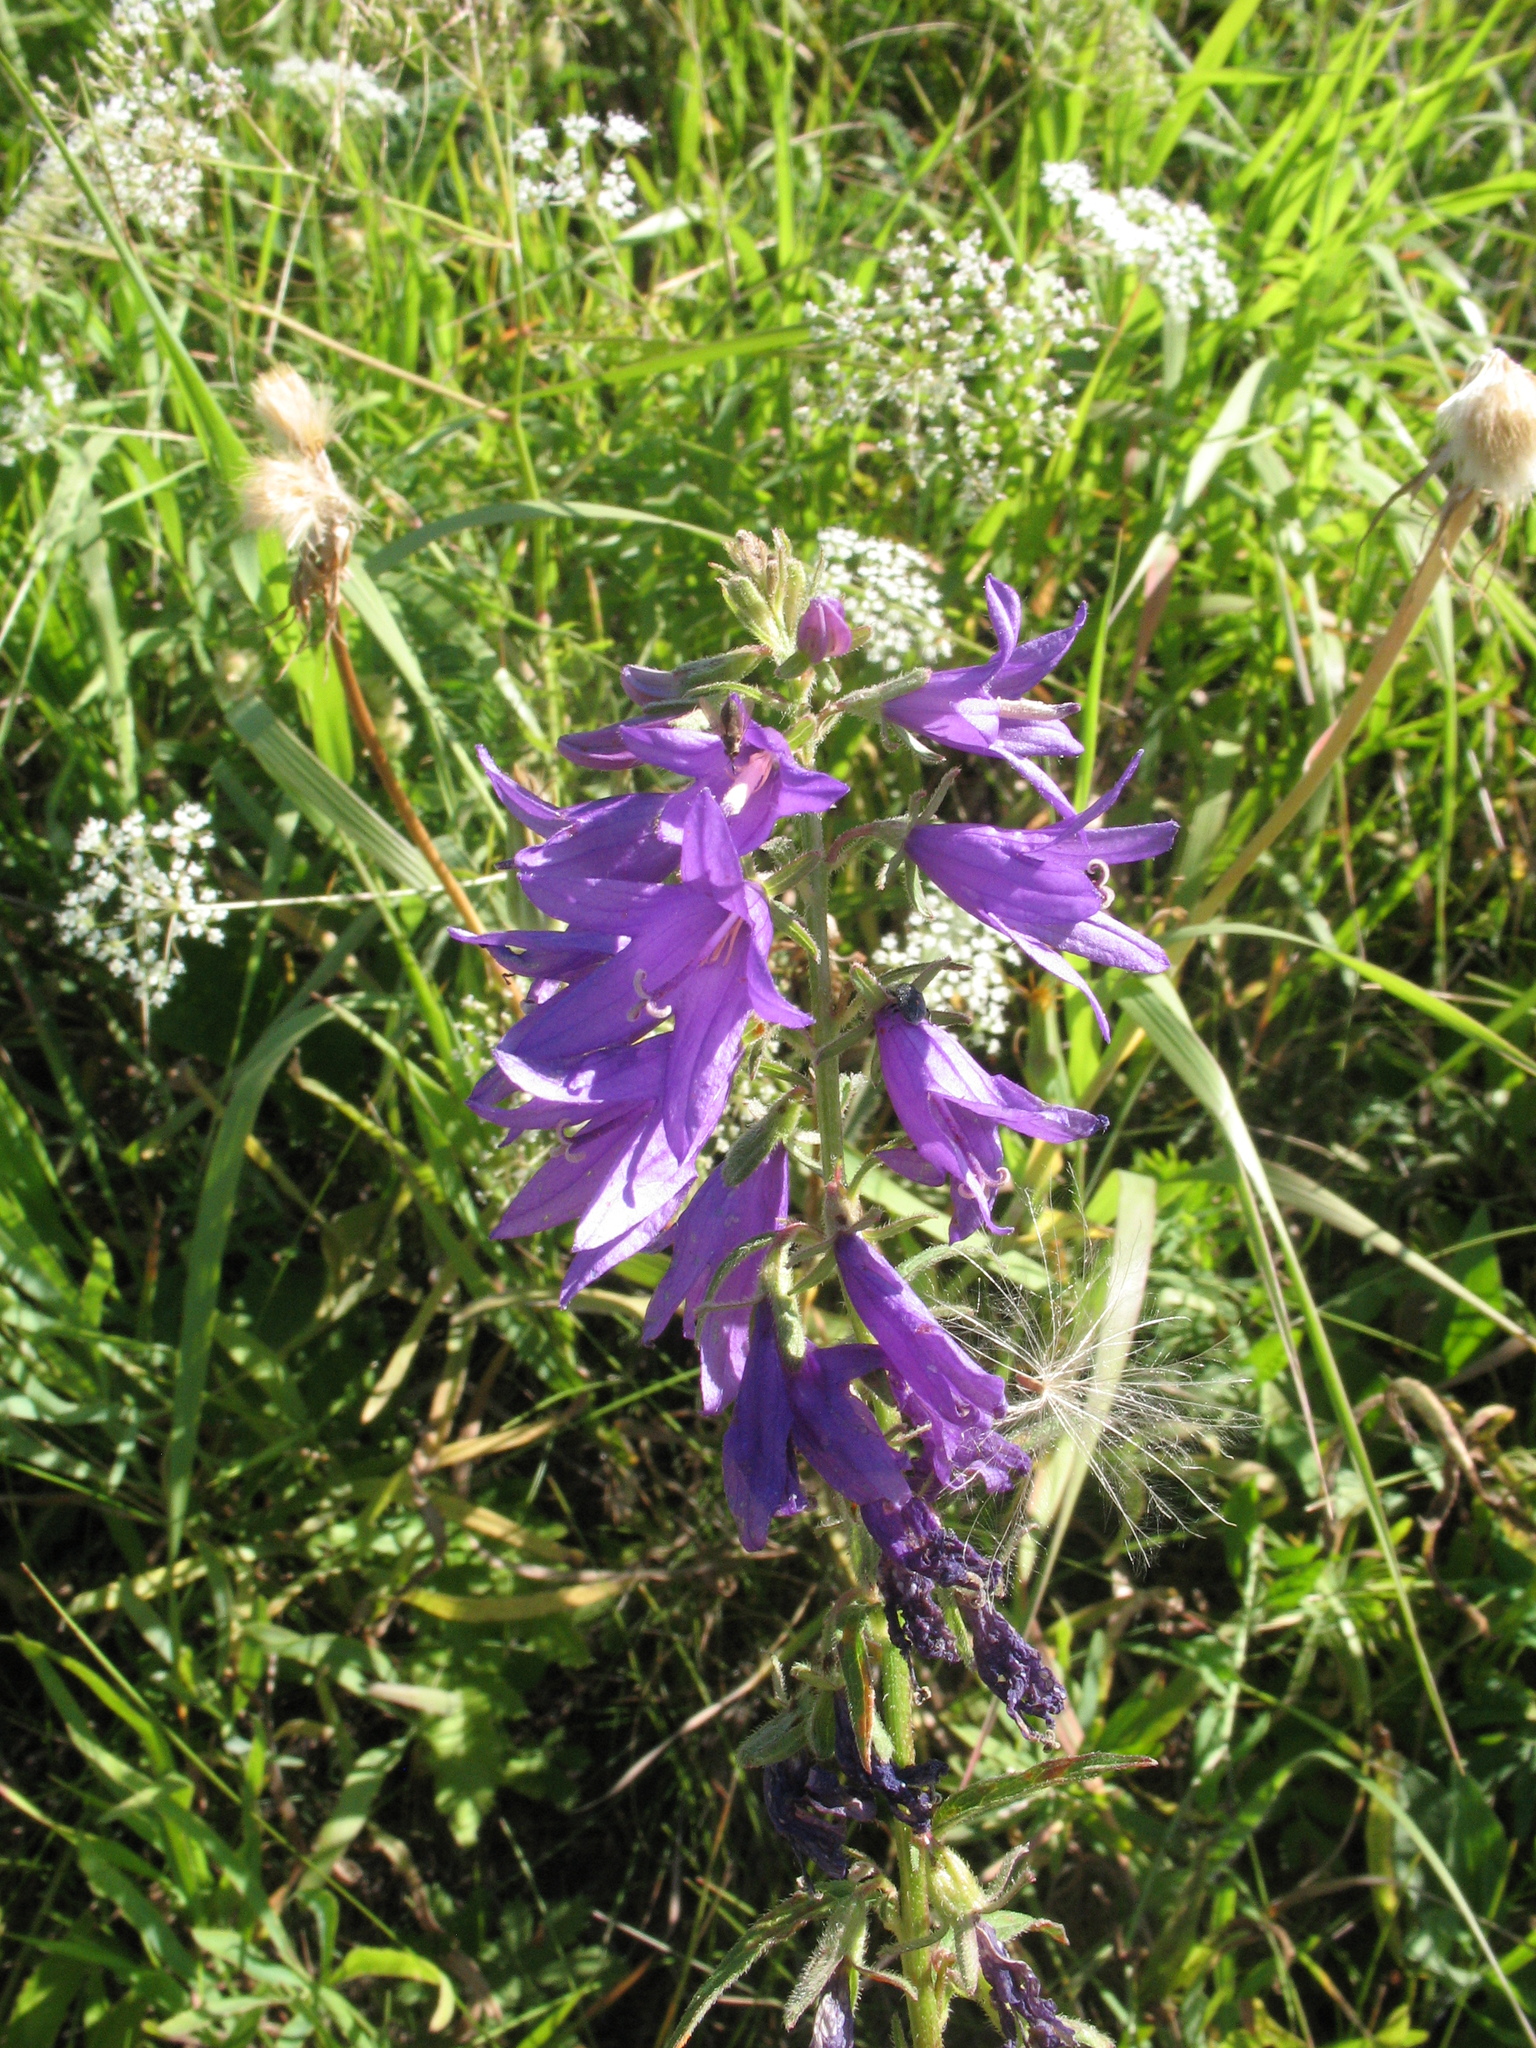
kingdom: Plantae
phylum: Tracheophyta
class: Magnoliopsida
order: Asterales
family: Asteraceae
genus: Aster
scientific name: Aster amellus
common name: European michaelmas daisy
